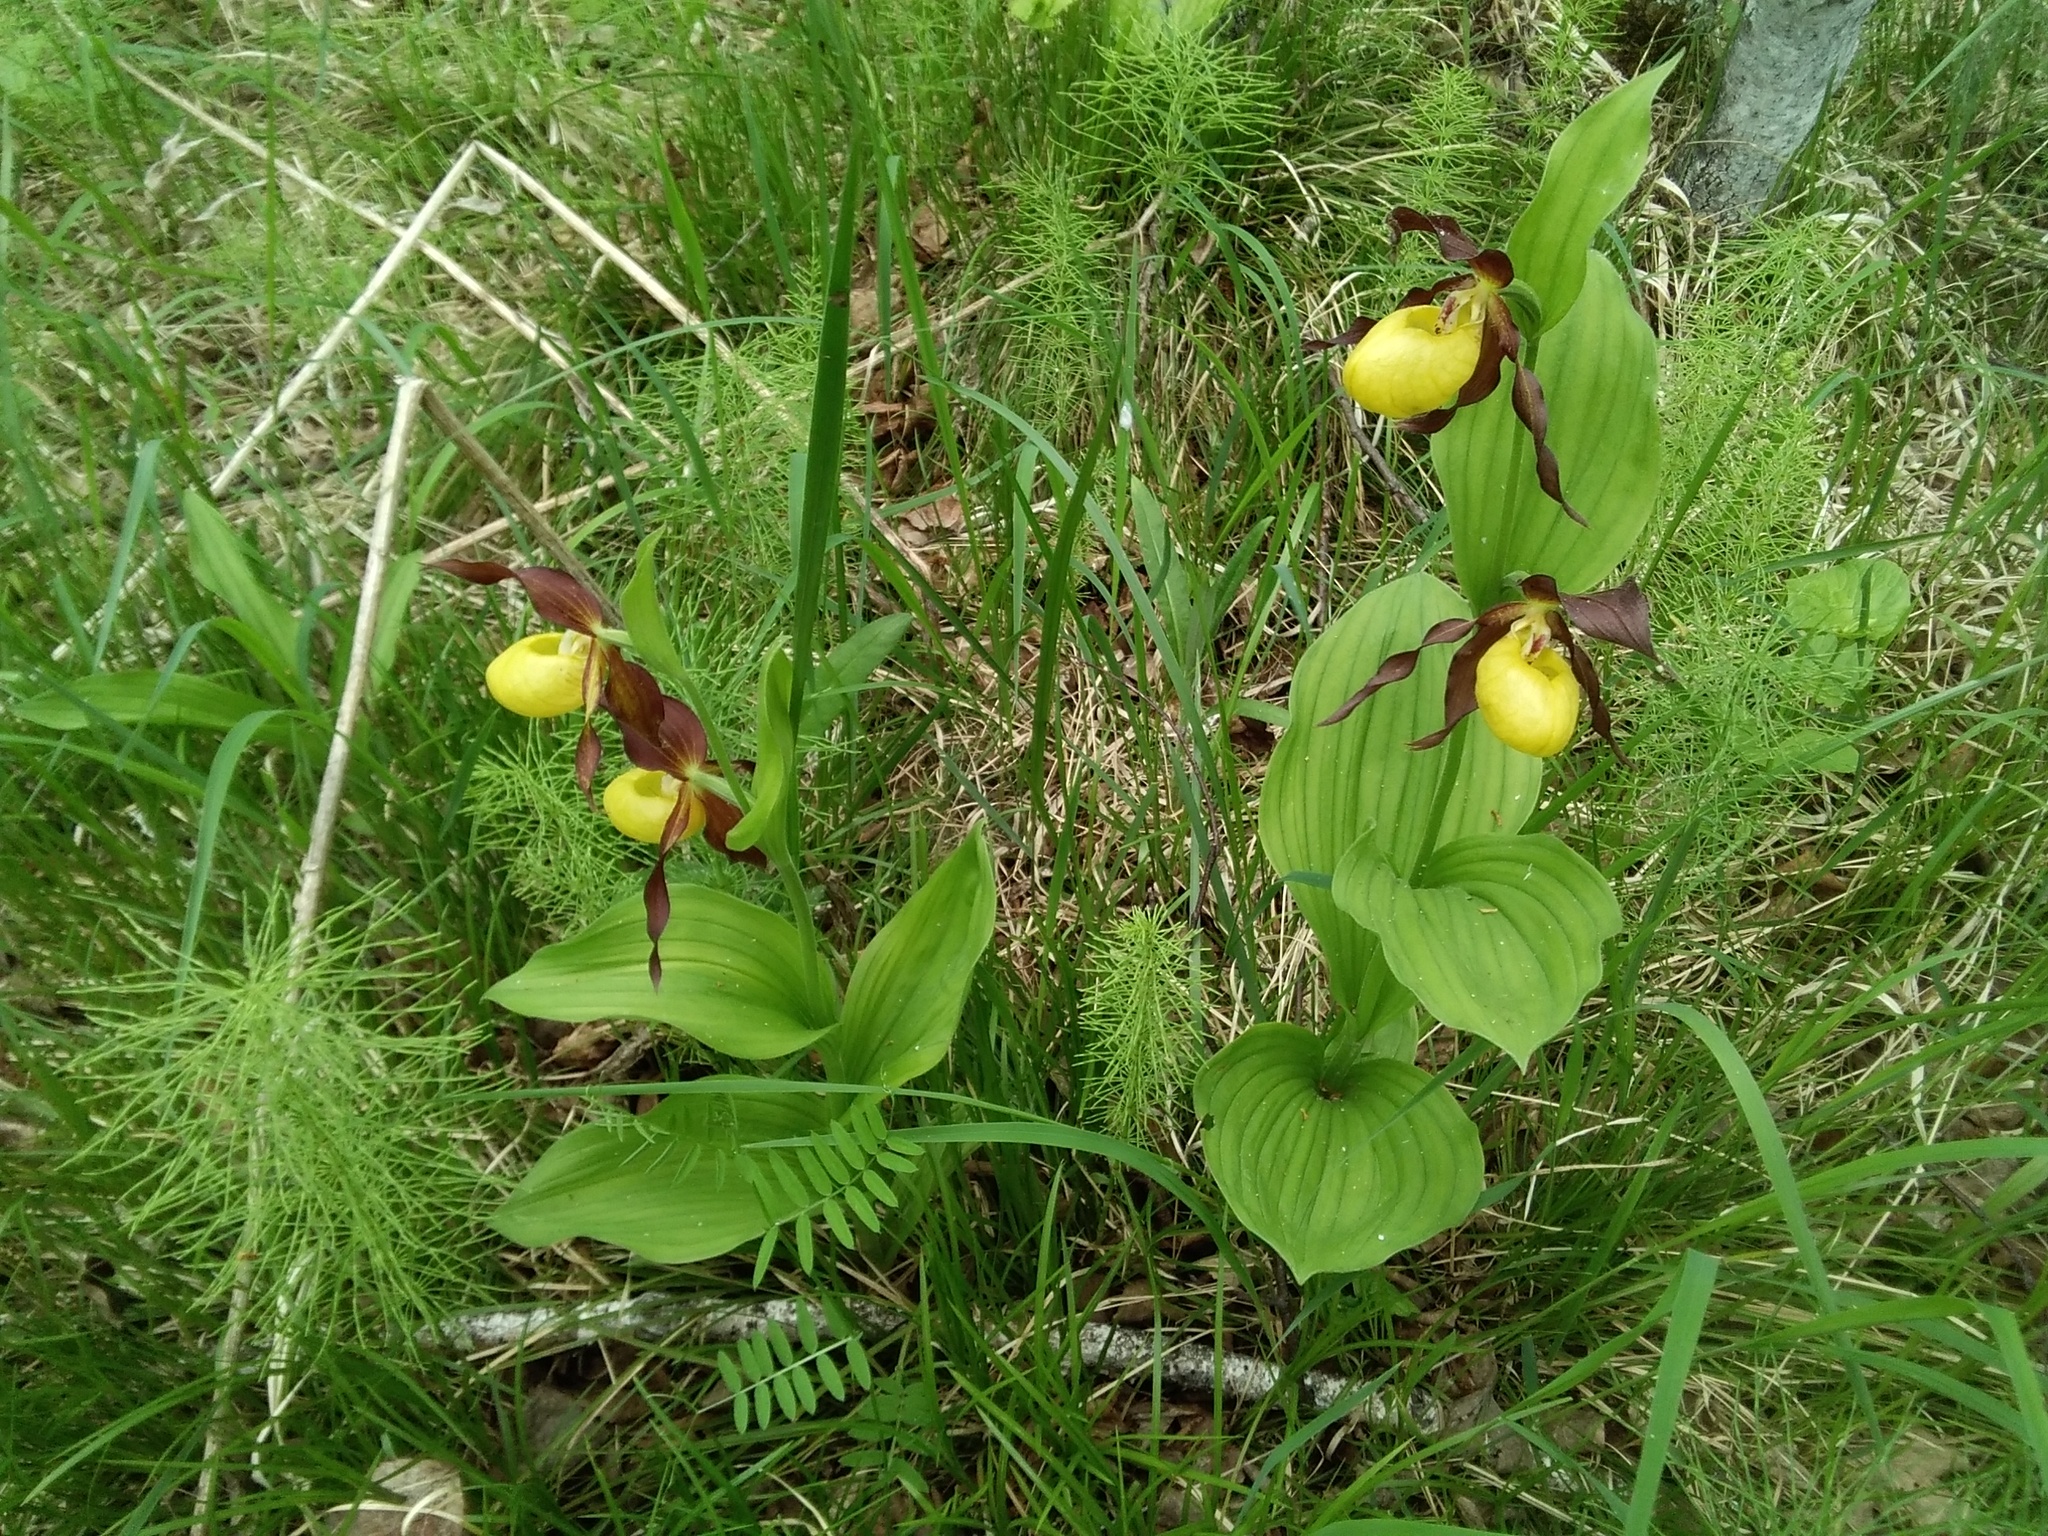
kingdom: Plantae
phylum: Tracheophyta
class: Liliopsida
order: Asparagales
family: Orchidaceae
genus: Cypripedium
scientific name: Cypripedium calceolus
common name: Lady's-slipper
